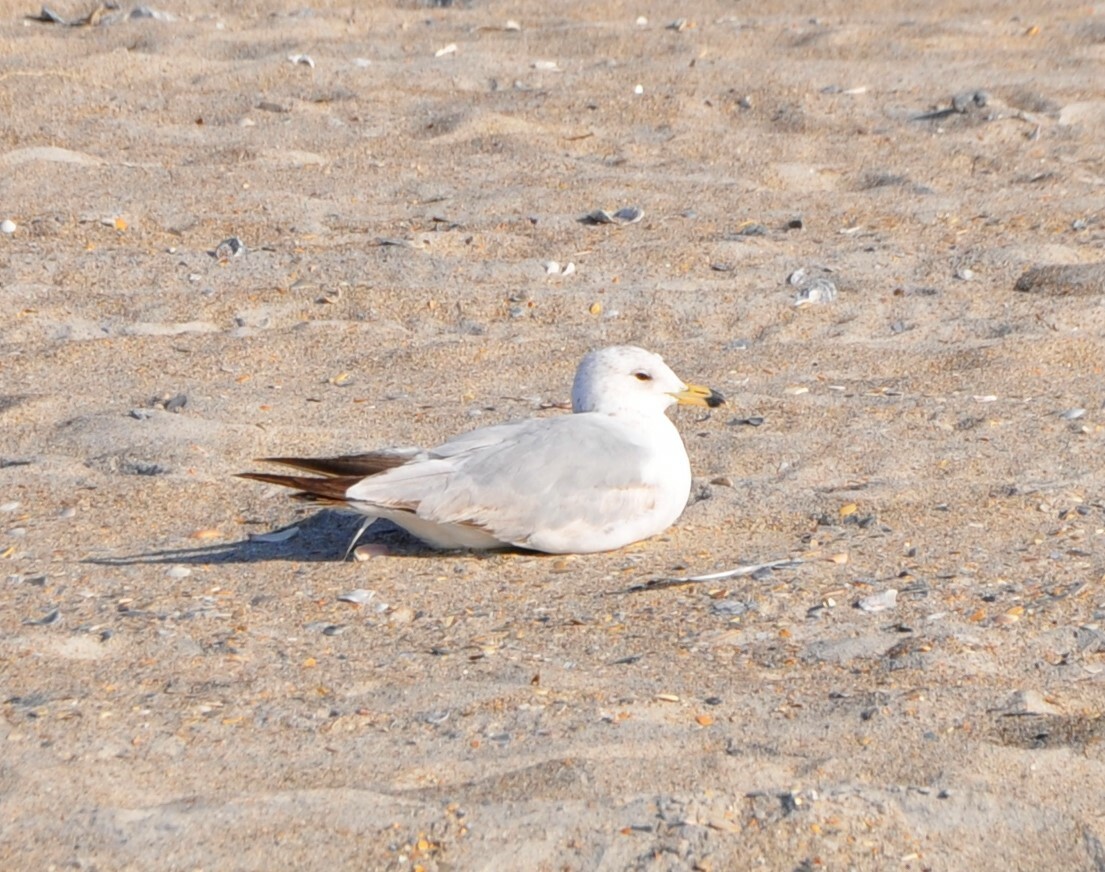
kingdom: Animalia
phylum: Chordata
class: Aves
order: Charadriiformes
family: Laridae
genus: Larus
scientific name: Larus delawarensis
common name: Ring-billed gull
